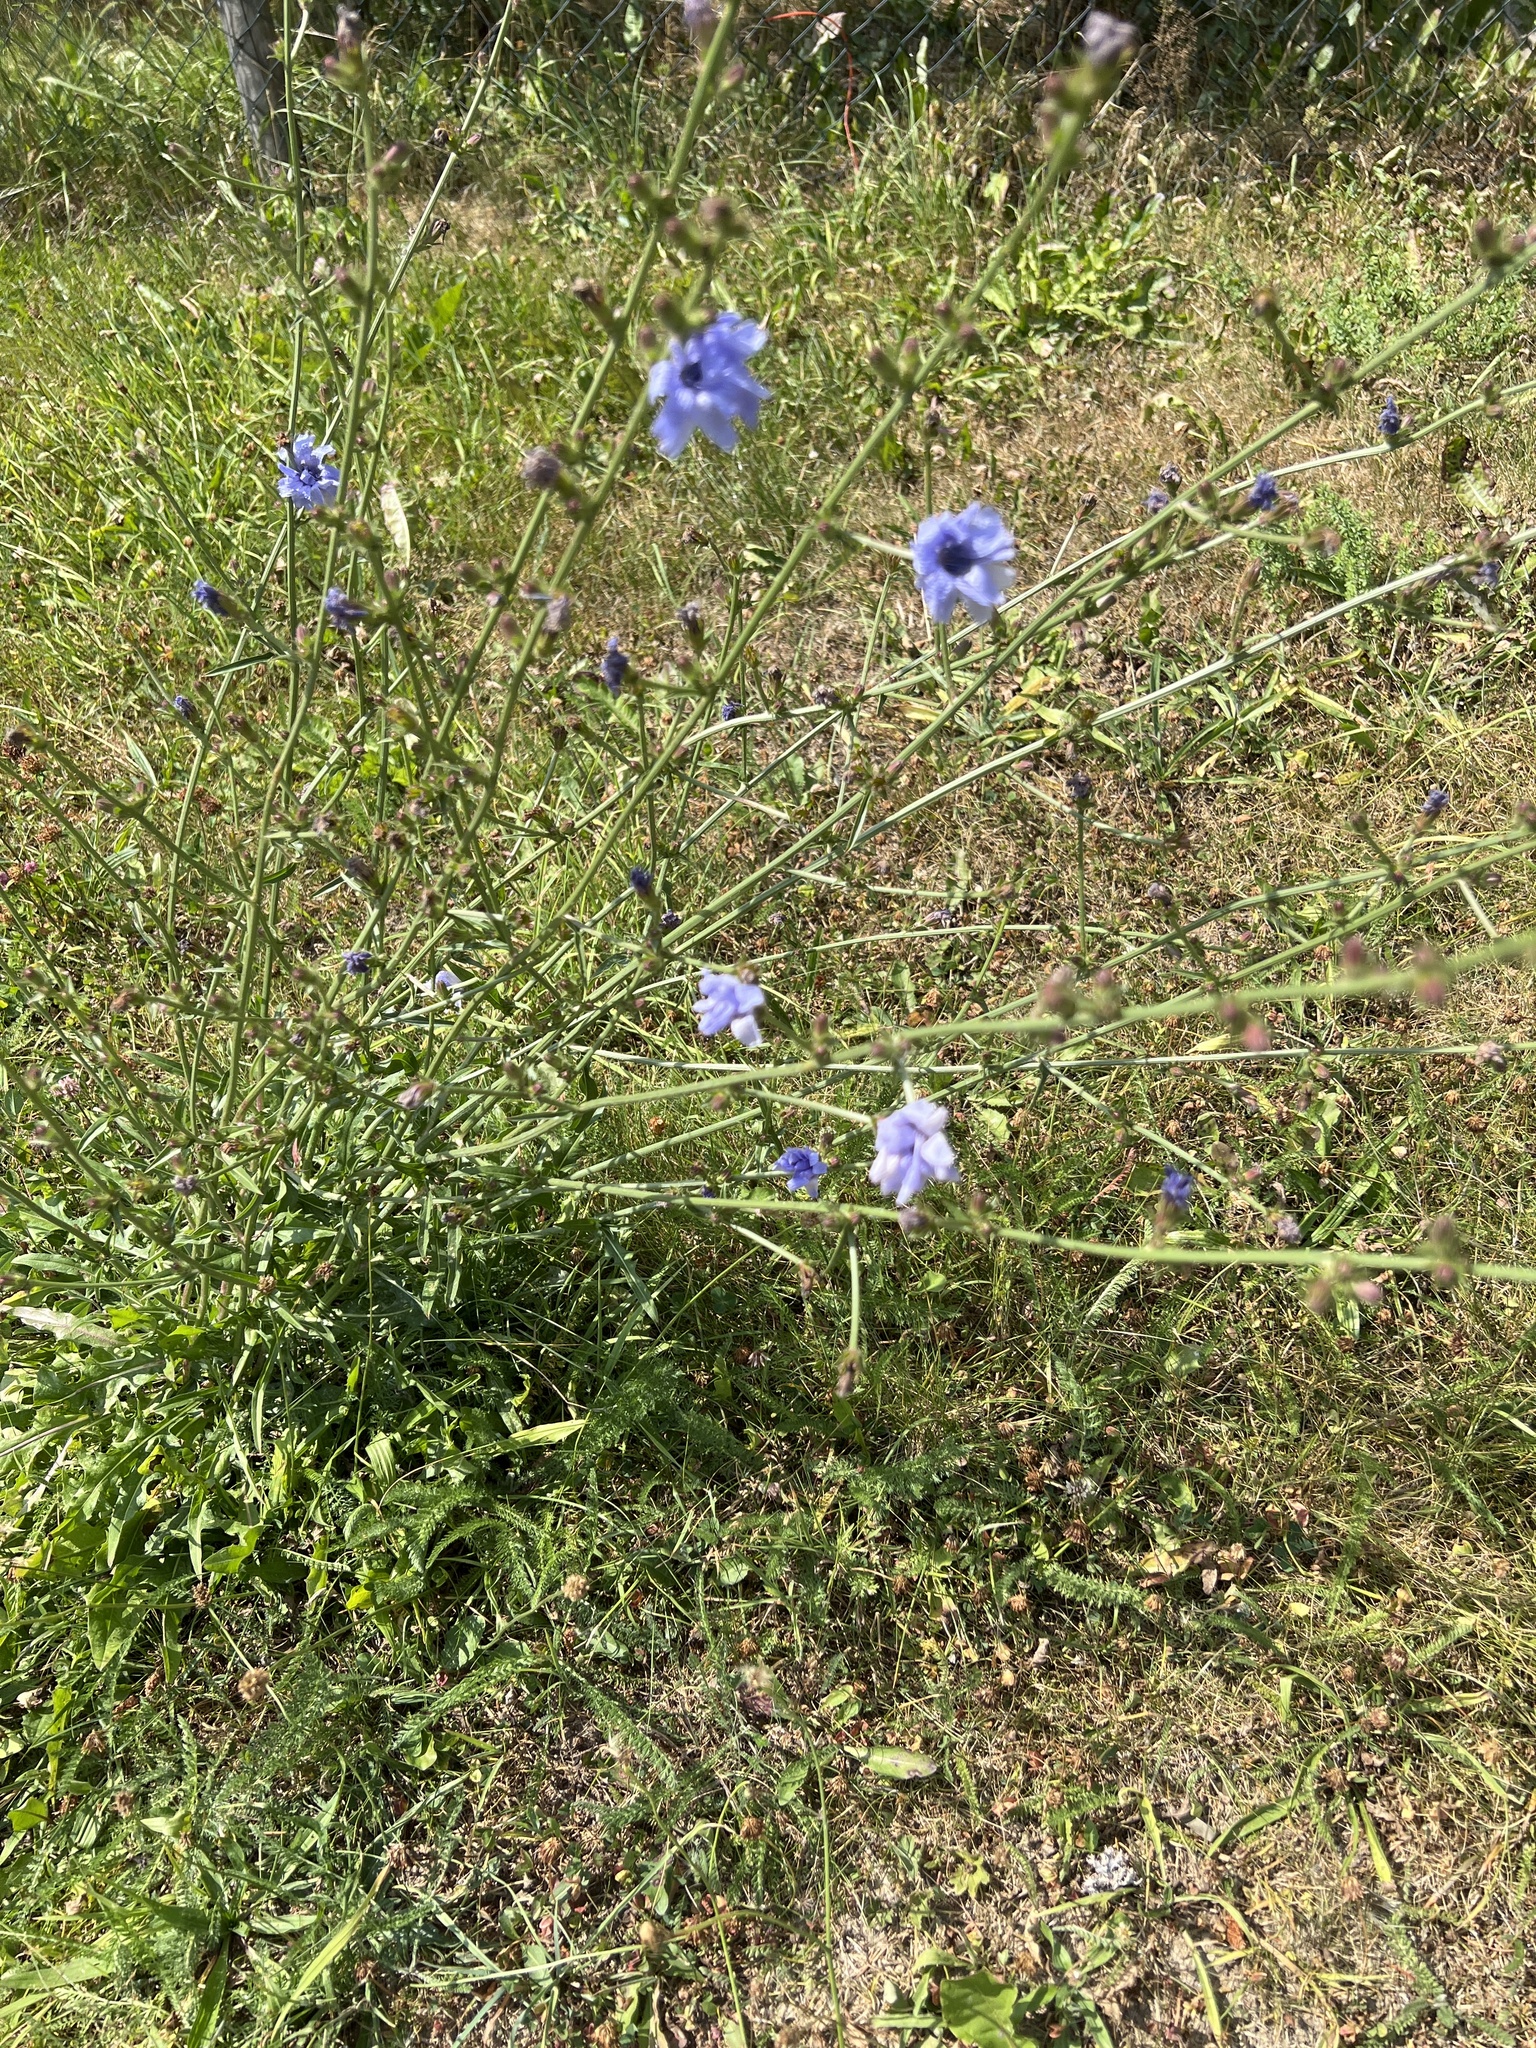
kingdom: Plantae
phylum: Tracheophyta
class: Magnoliopsida
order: Asterales
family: Asteraceae
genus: Cichorium
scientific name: Cichorium intybus
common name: Chicory
